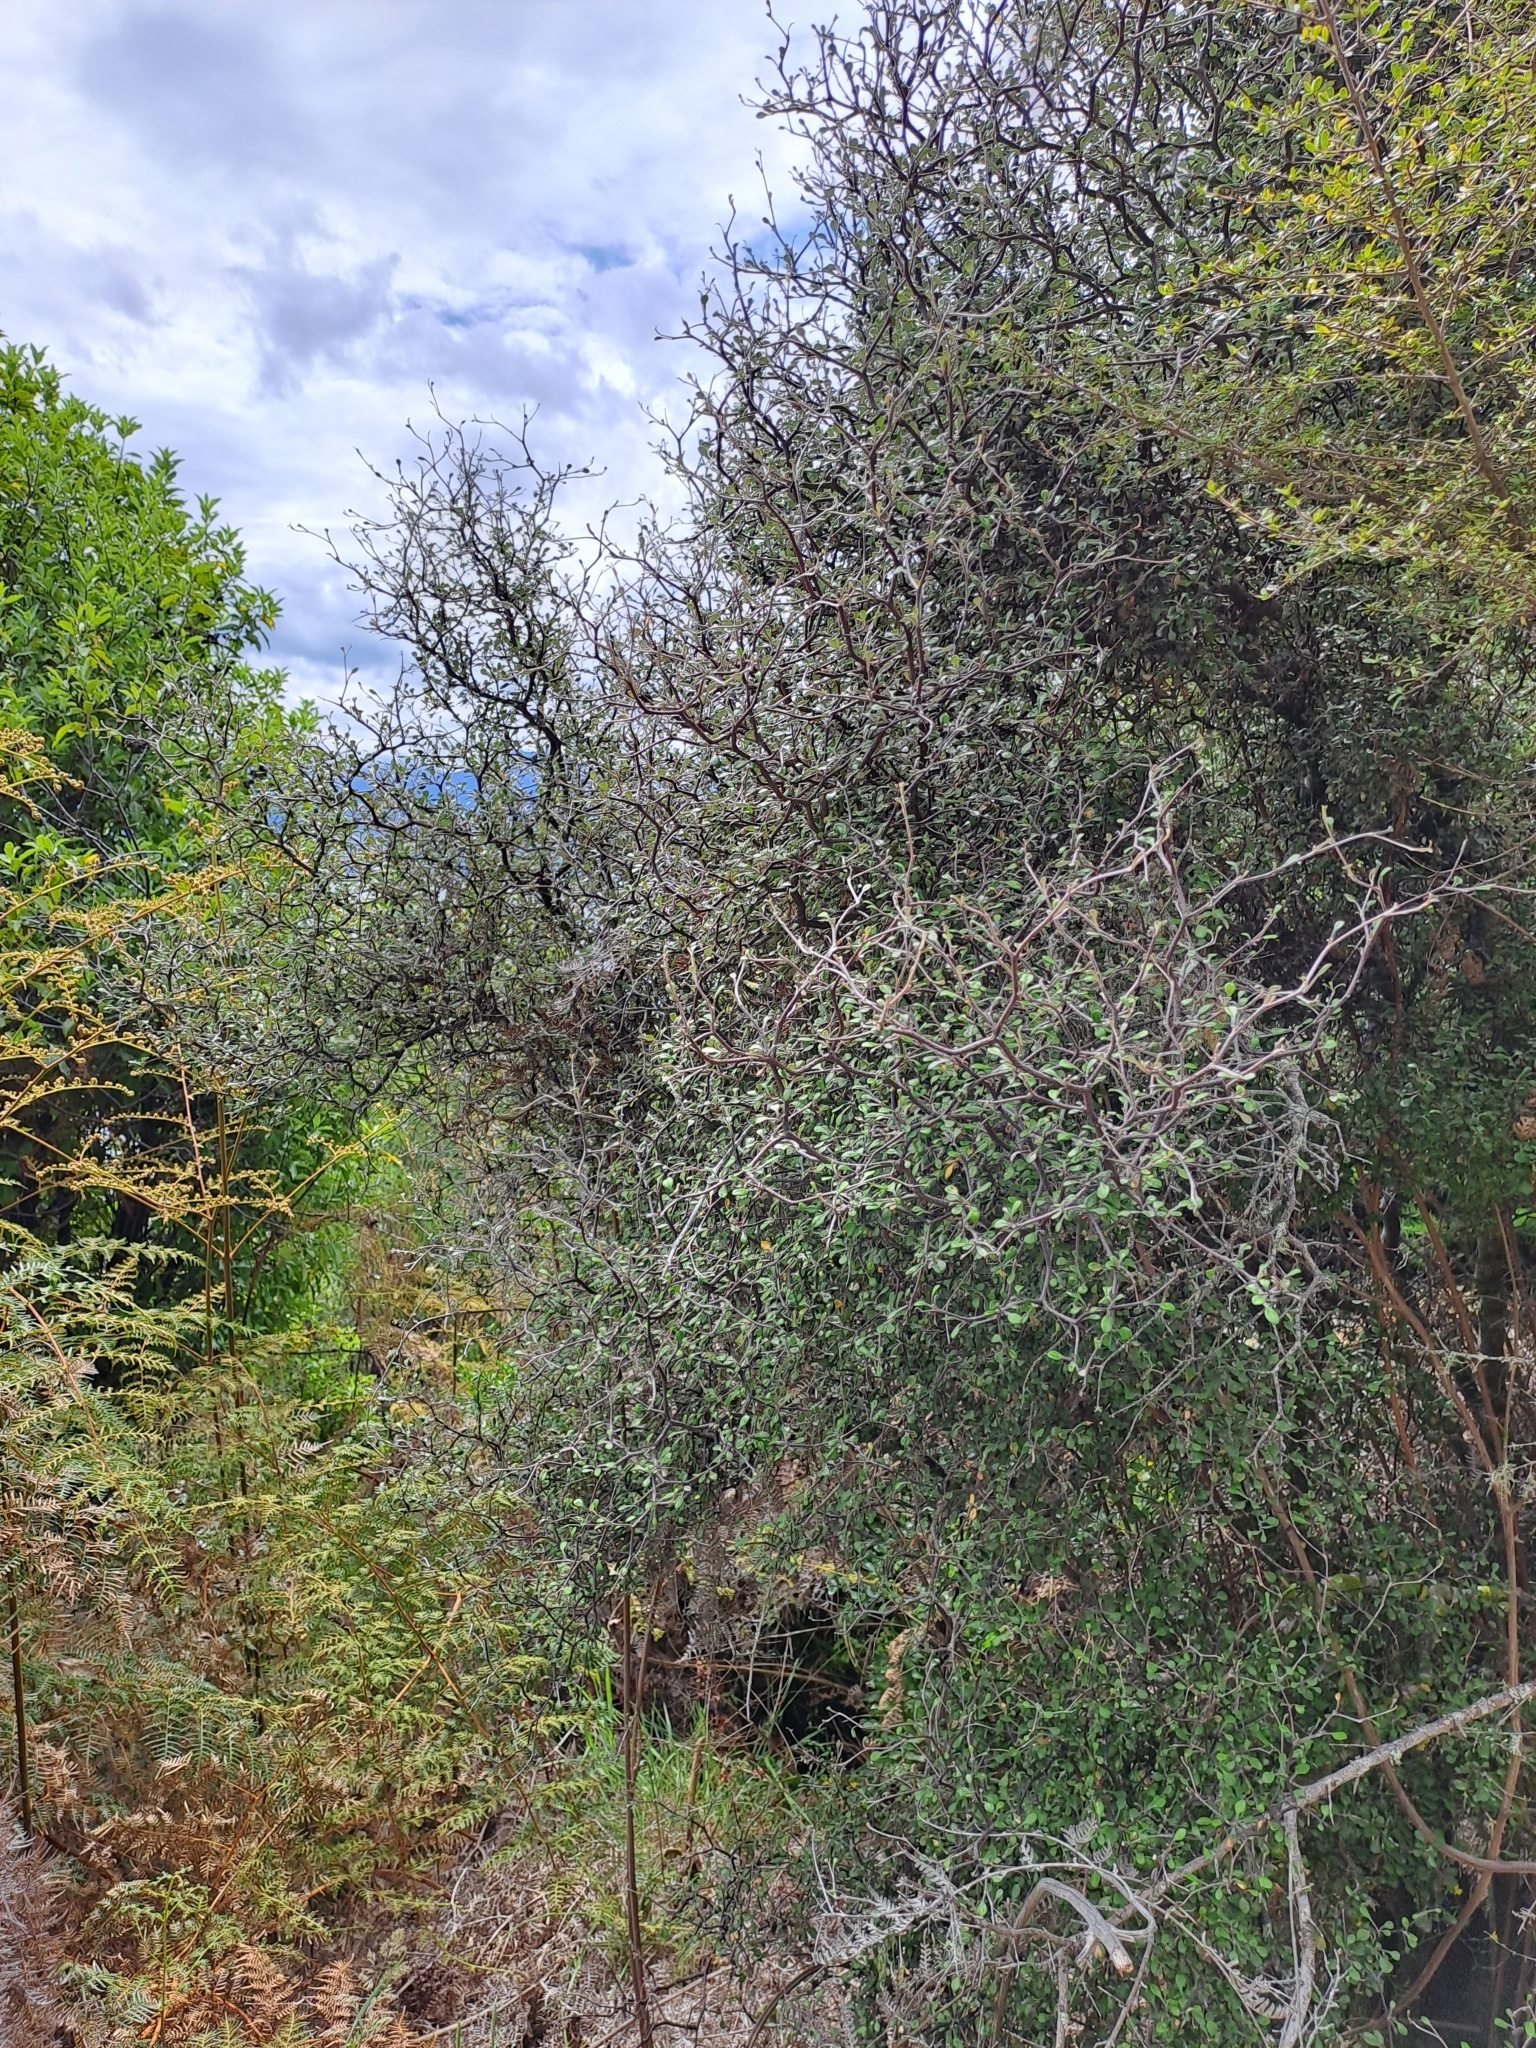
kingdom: Plantae
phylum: Tracheophyta
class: Magnoliopsida
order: Asterales
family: Argophyllaceae
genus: Corokia
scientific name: Corokia cotoneaster
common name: Wire nettingbush
